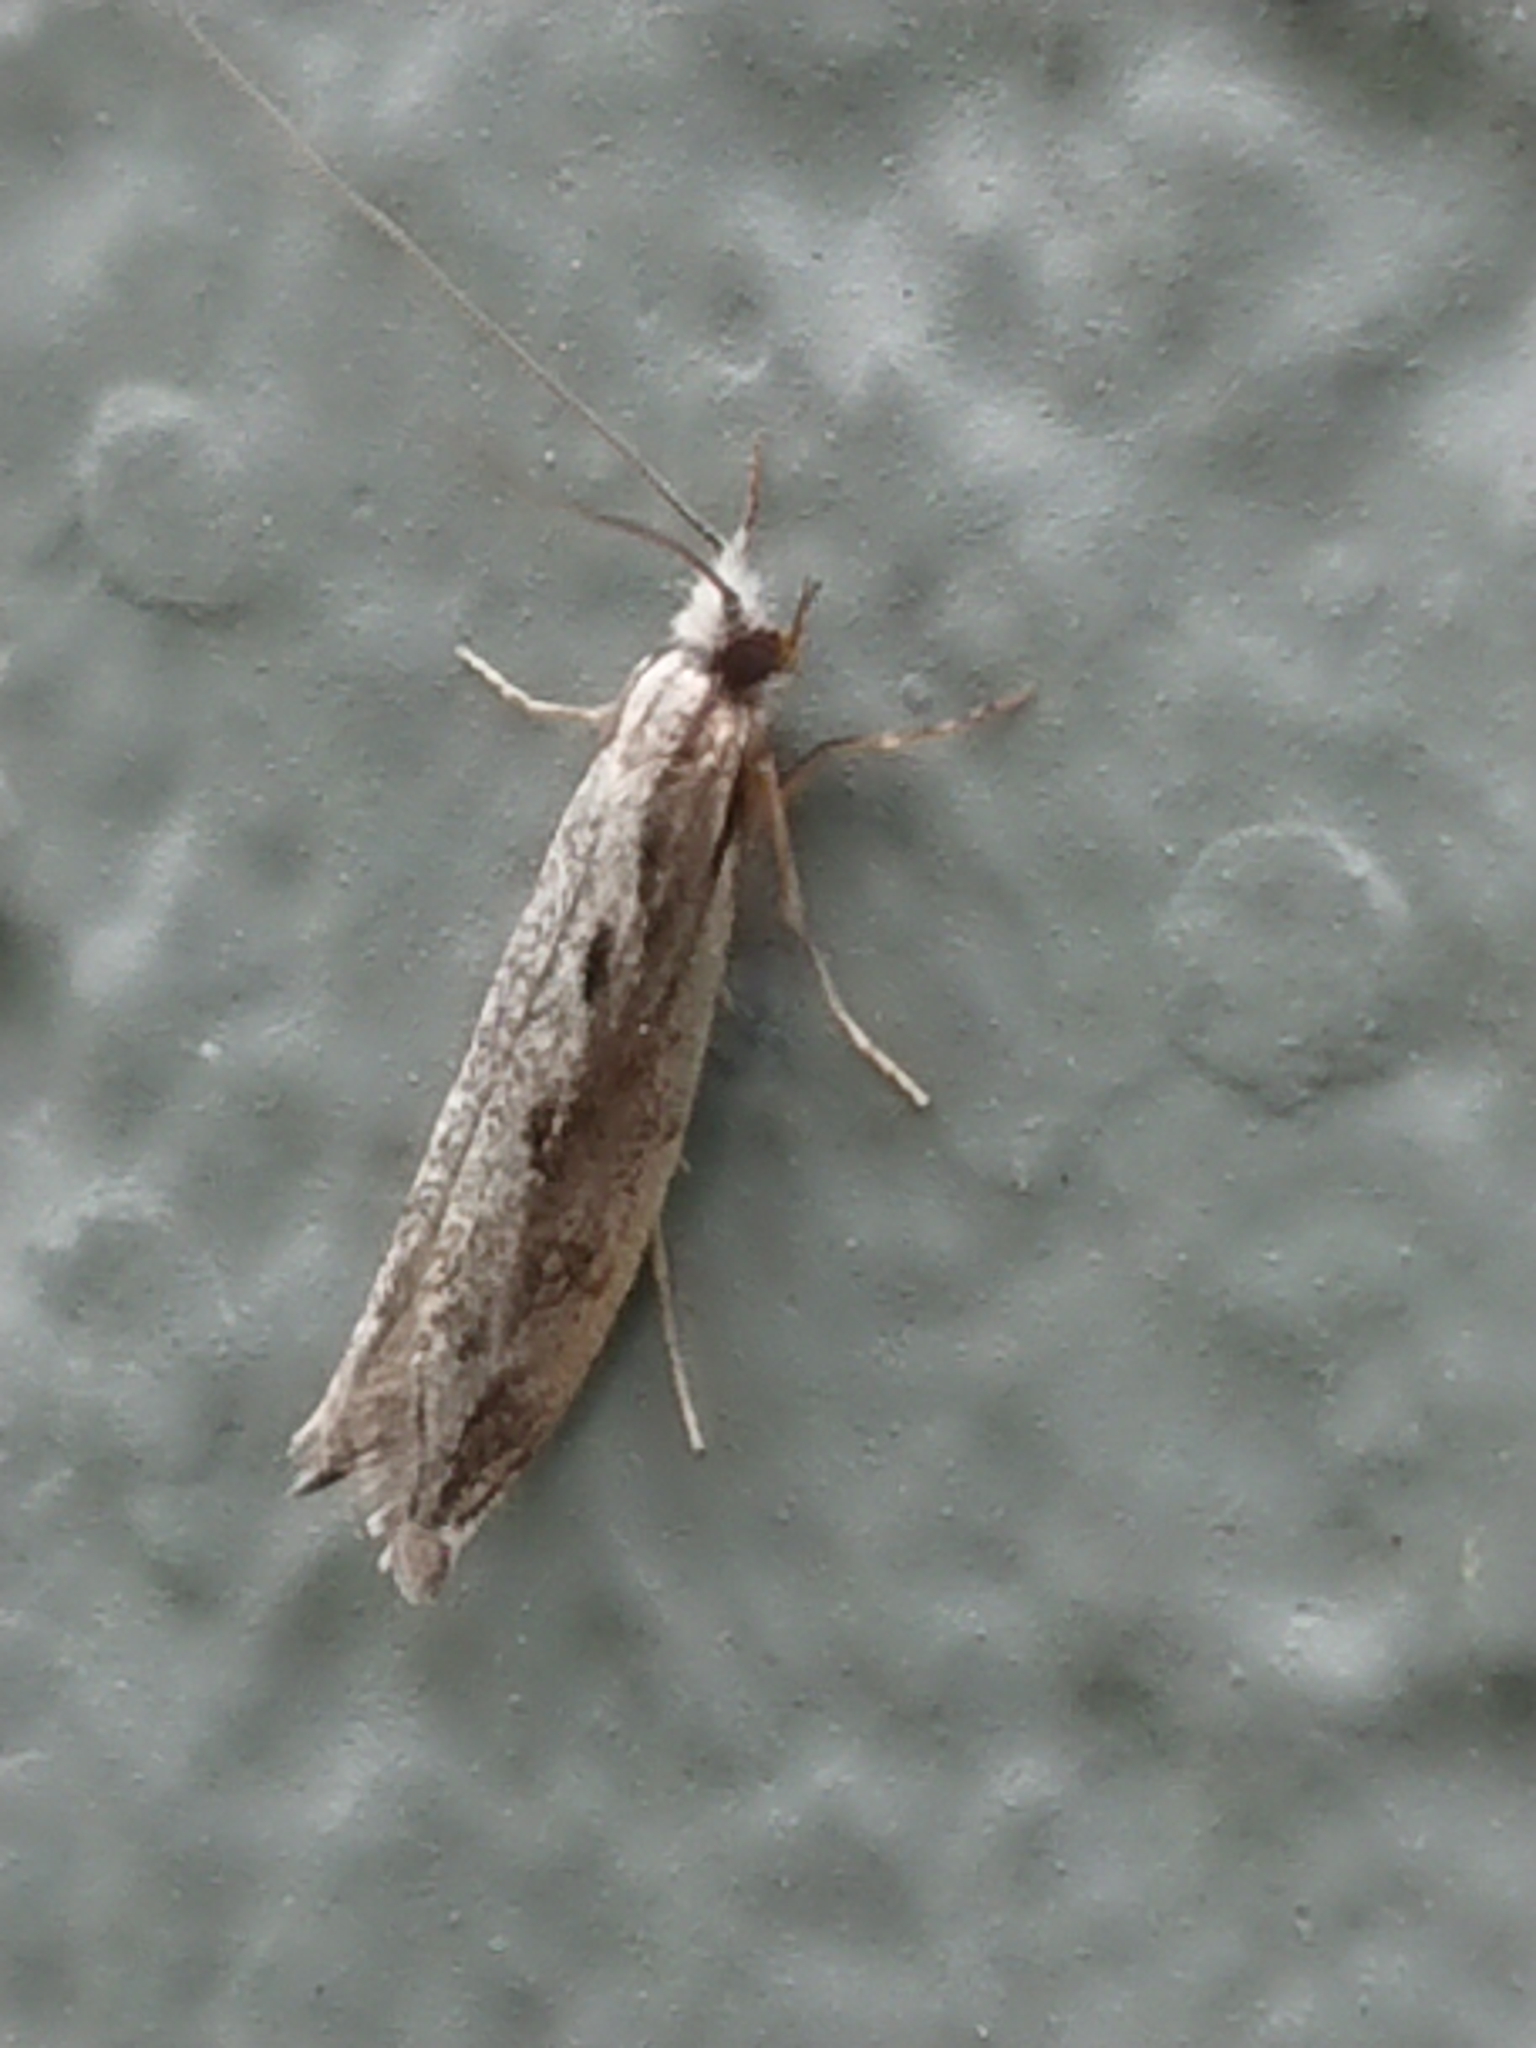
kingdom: Animalia
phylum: Arthropoda
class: Insecta
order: Lepidoptera
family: Tineidae
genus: Erechthias
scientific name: Erechthias fulguritella
